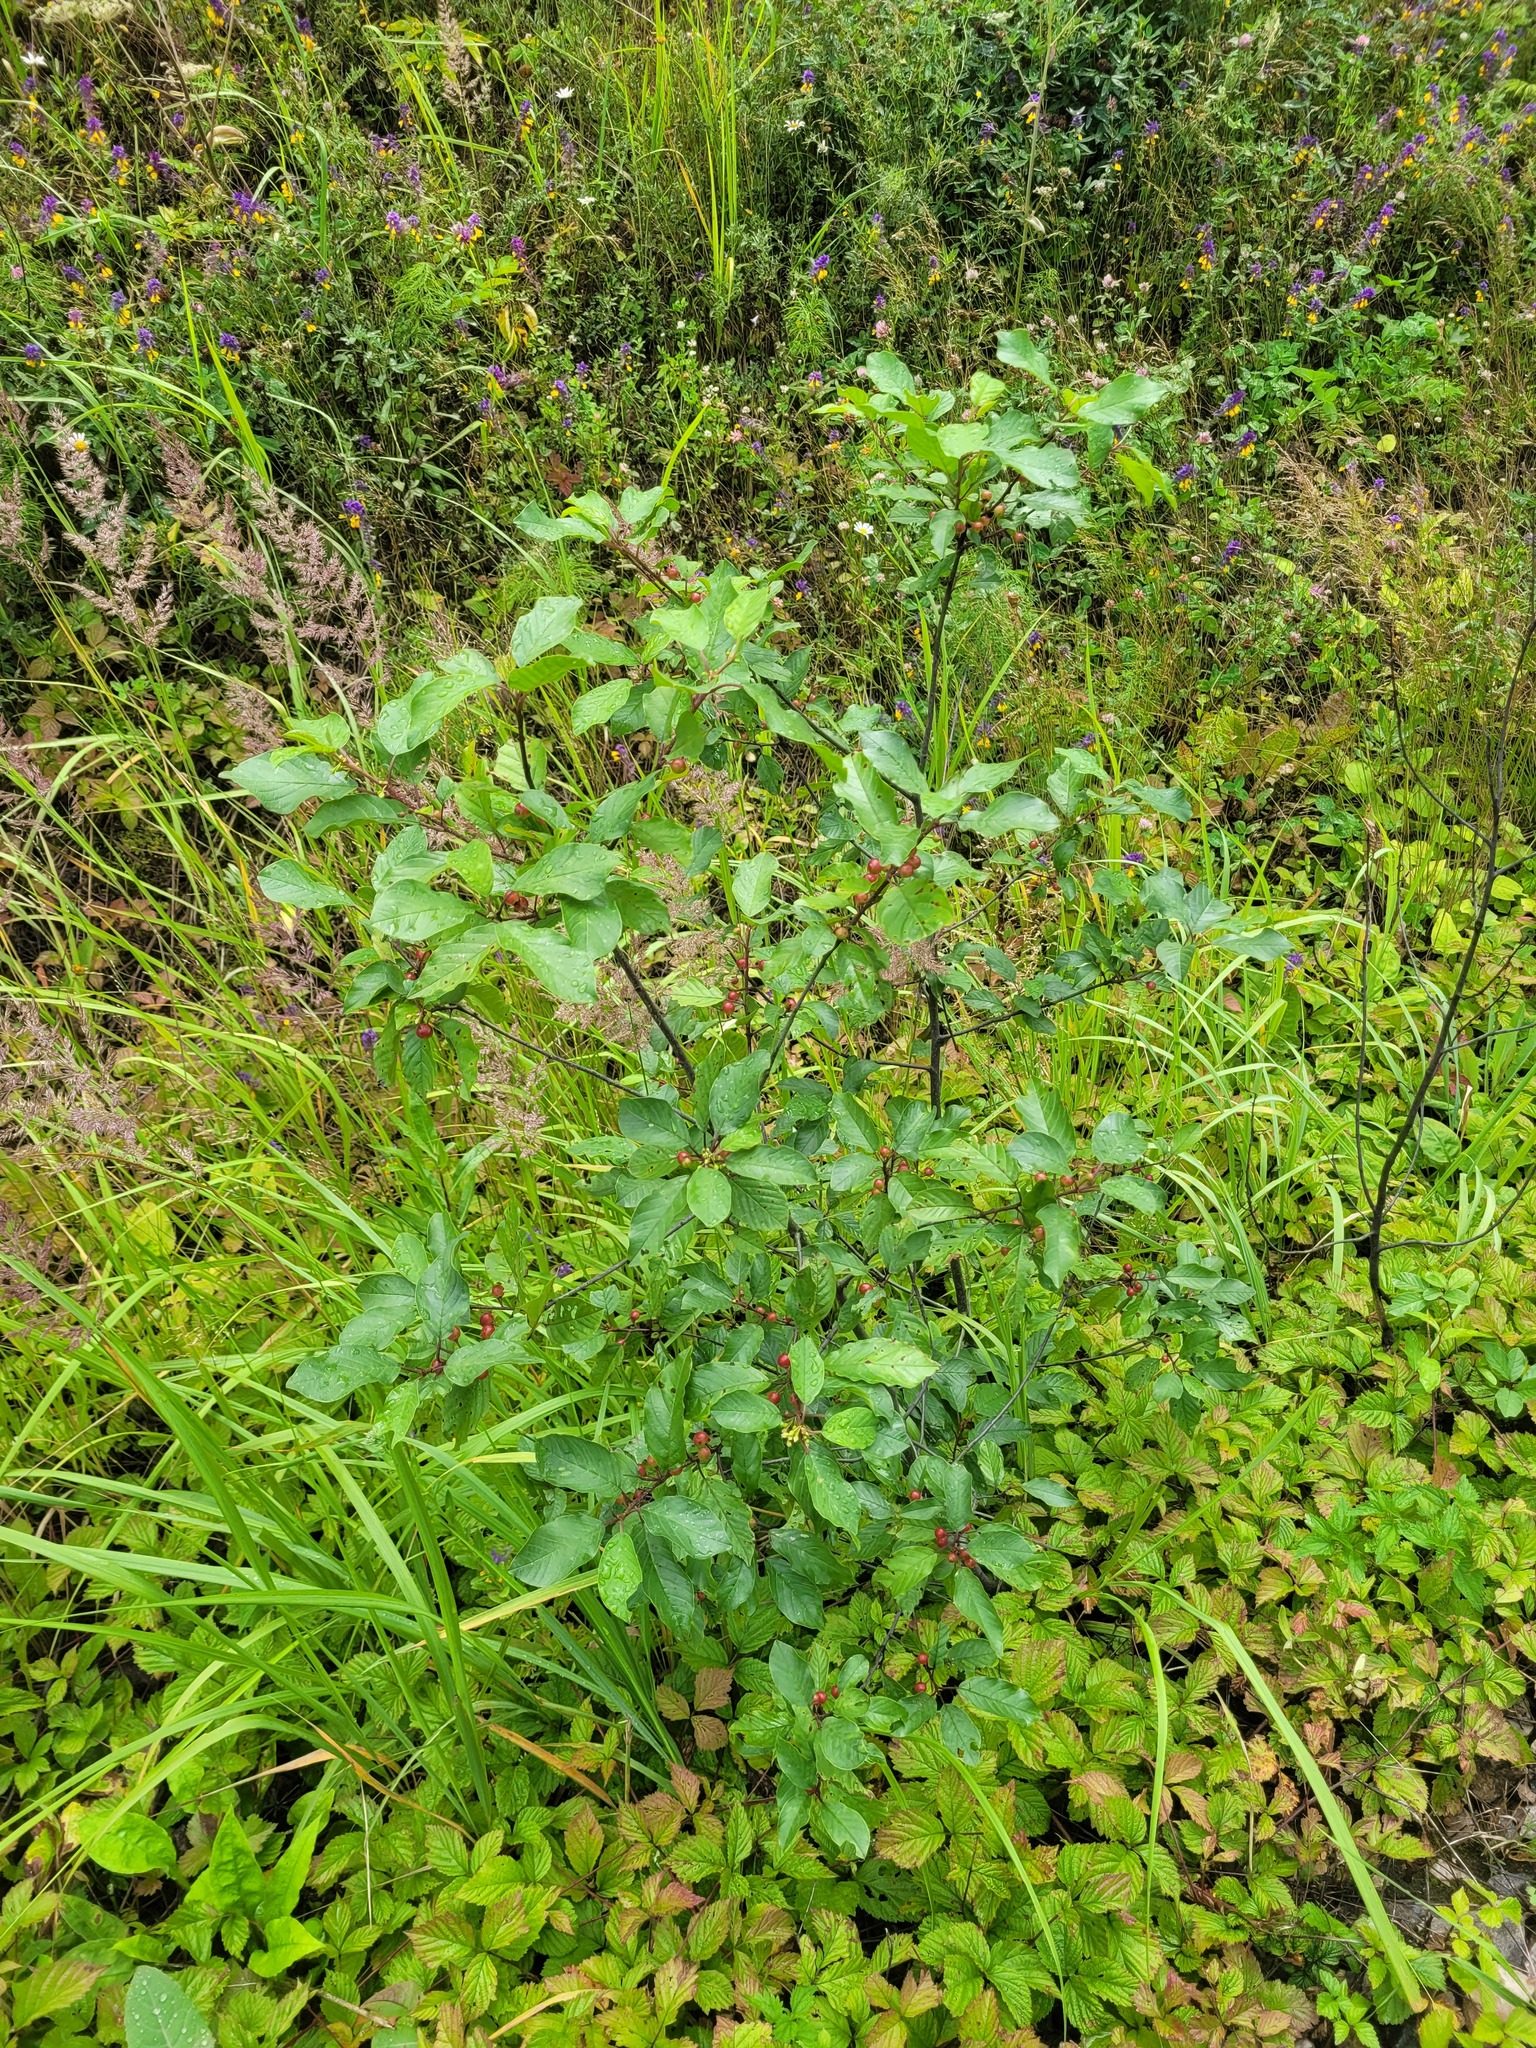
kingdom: Plantae
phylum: Tracheophyta
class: Magnoliopsida
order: Rosales
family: Rhamnaceae
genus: Frangula
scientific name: Frangula alnus
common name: Alder buckthorn
